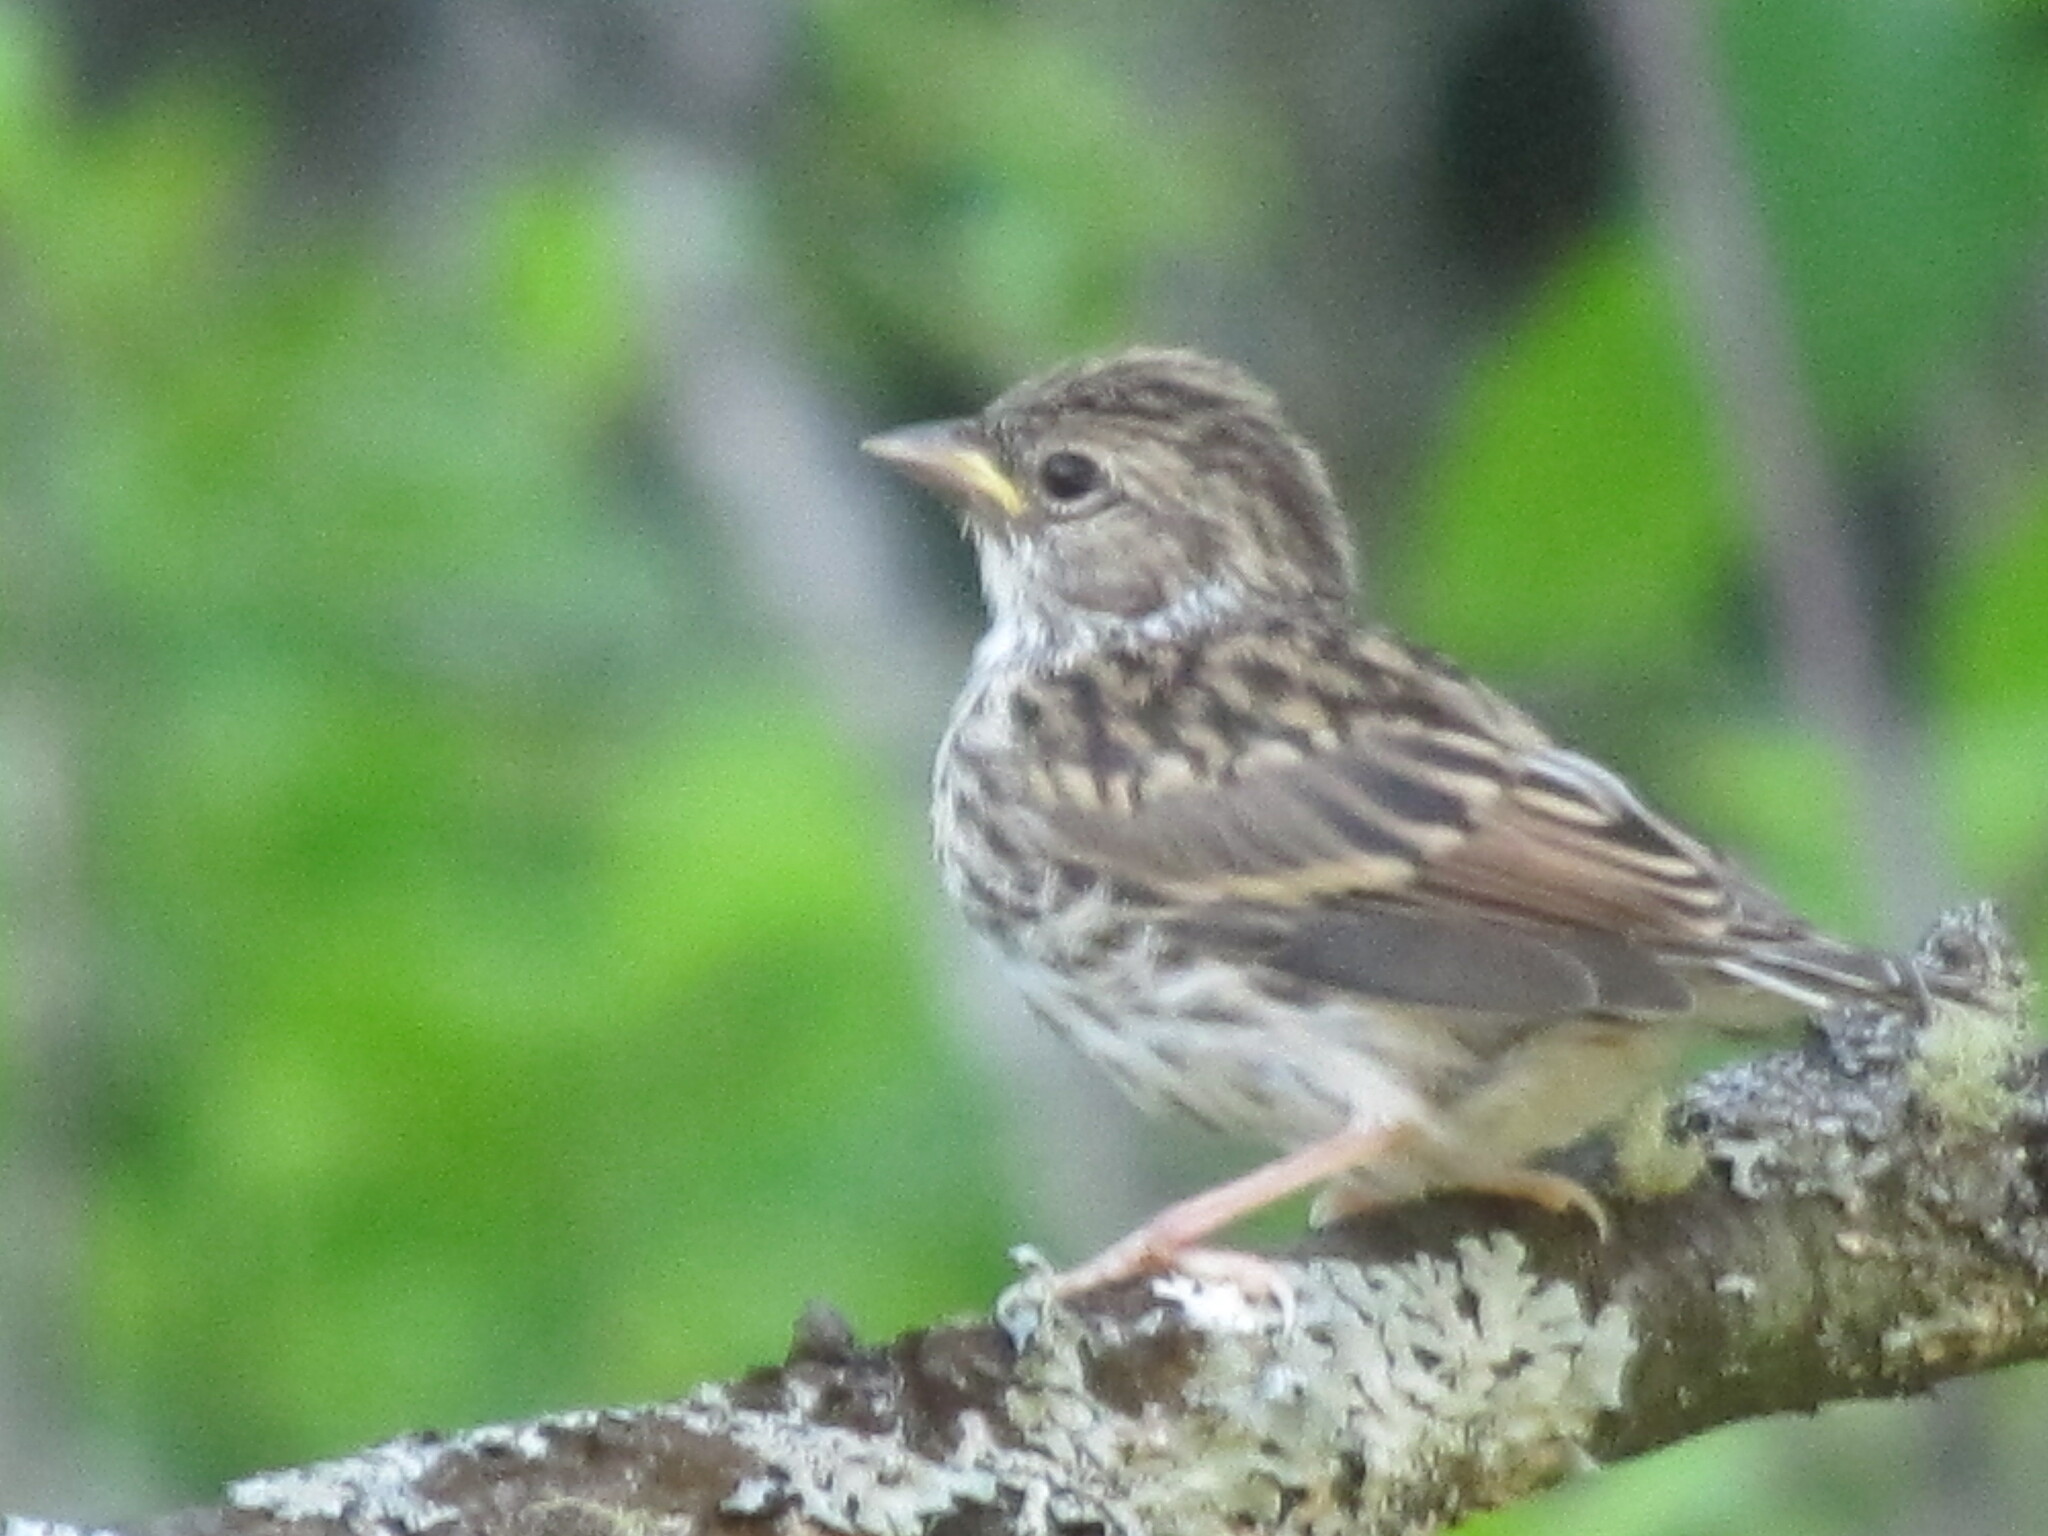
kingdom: Animalia
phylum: Chordata
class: Aves
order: Passeriformes
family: Passerellidae
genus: Spizella
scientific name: Spizella passerina
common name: Chipping sparrow
